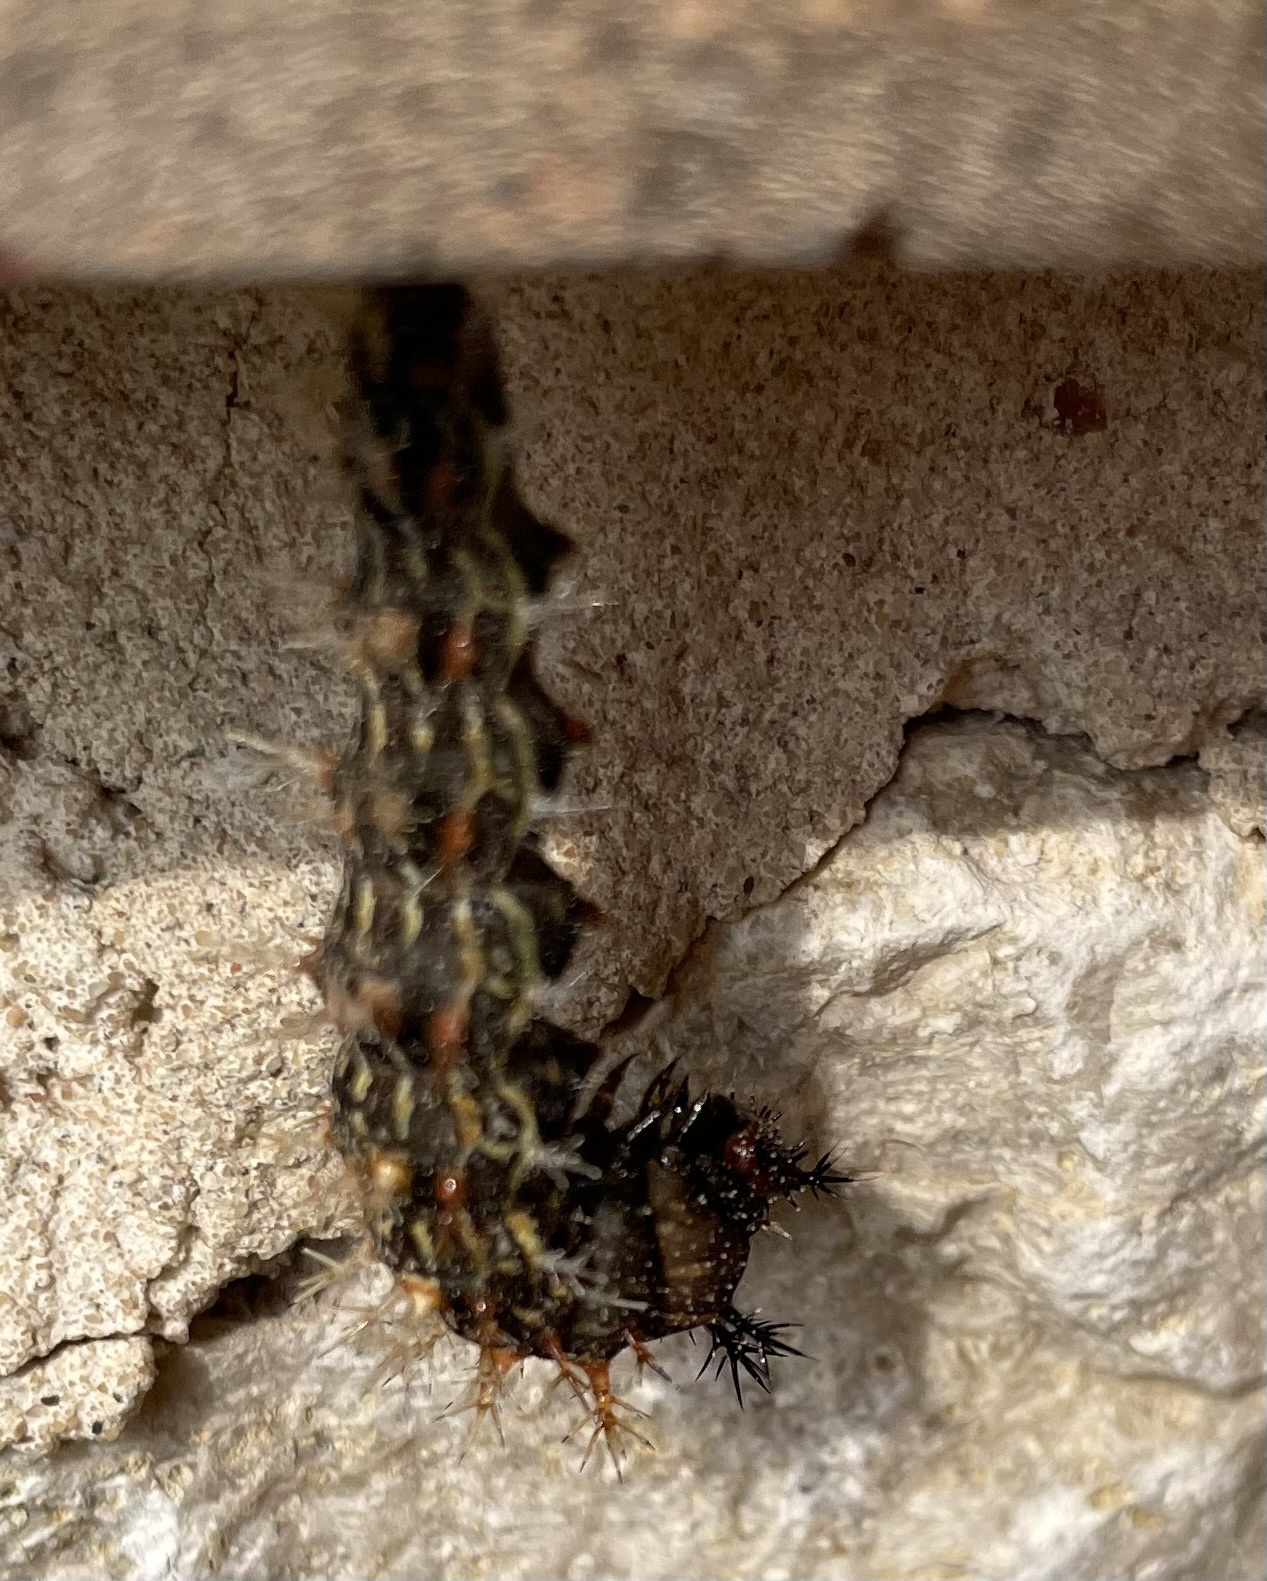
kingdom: Animalia
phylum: Arthropoda
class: Insecta
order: Lepidoptera
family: Nymphalidae
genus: Polygonia
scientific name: Polygonia interrogationis
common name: Question mark
